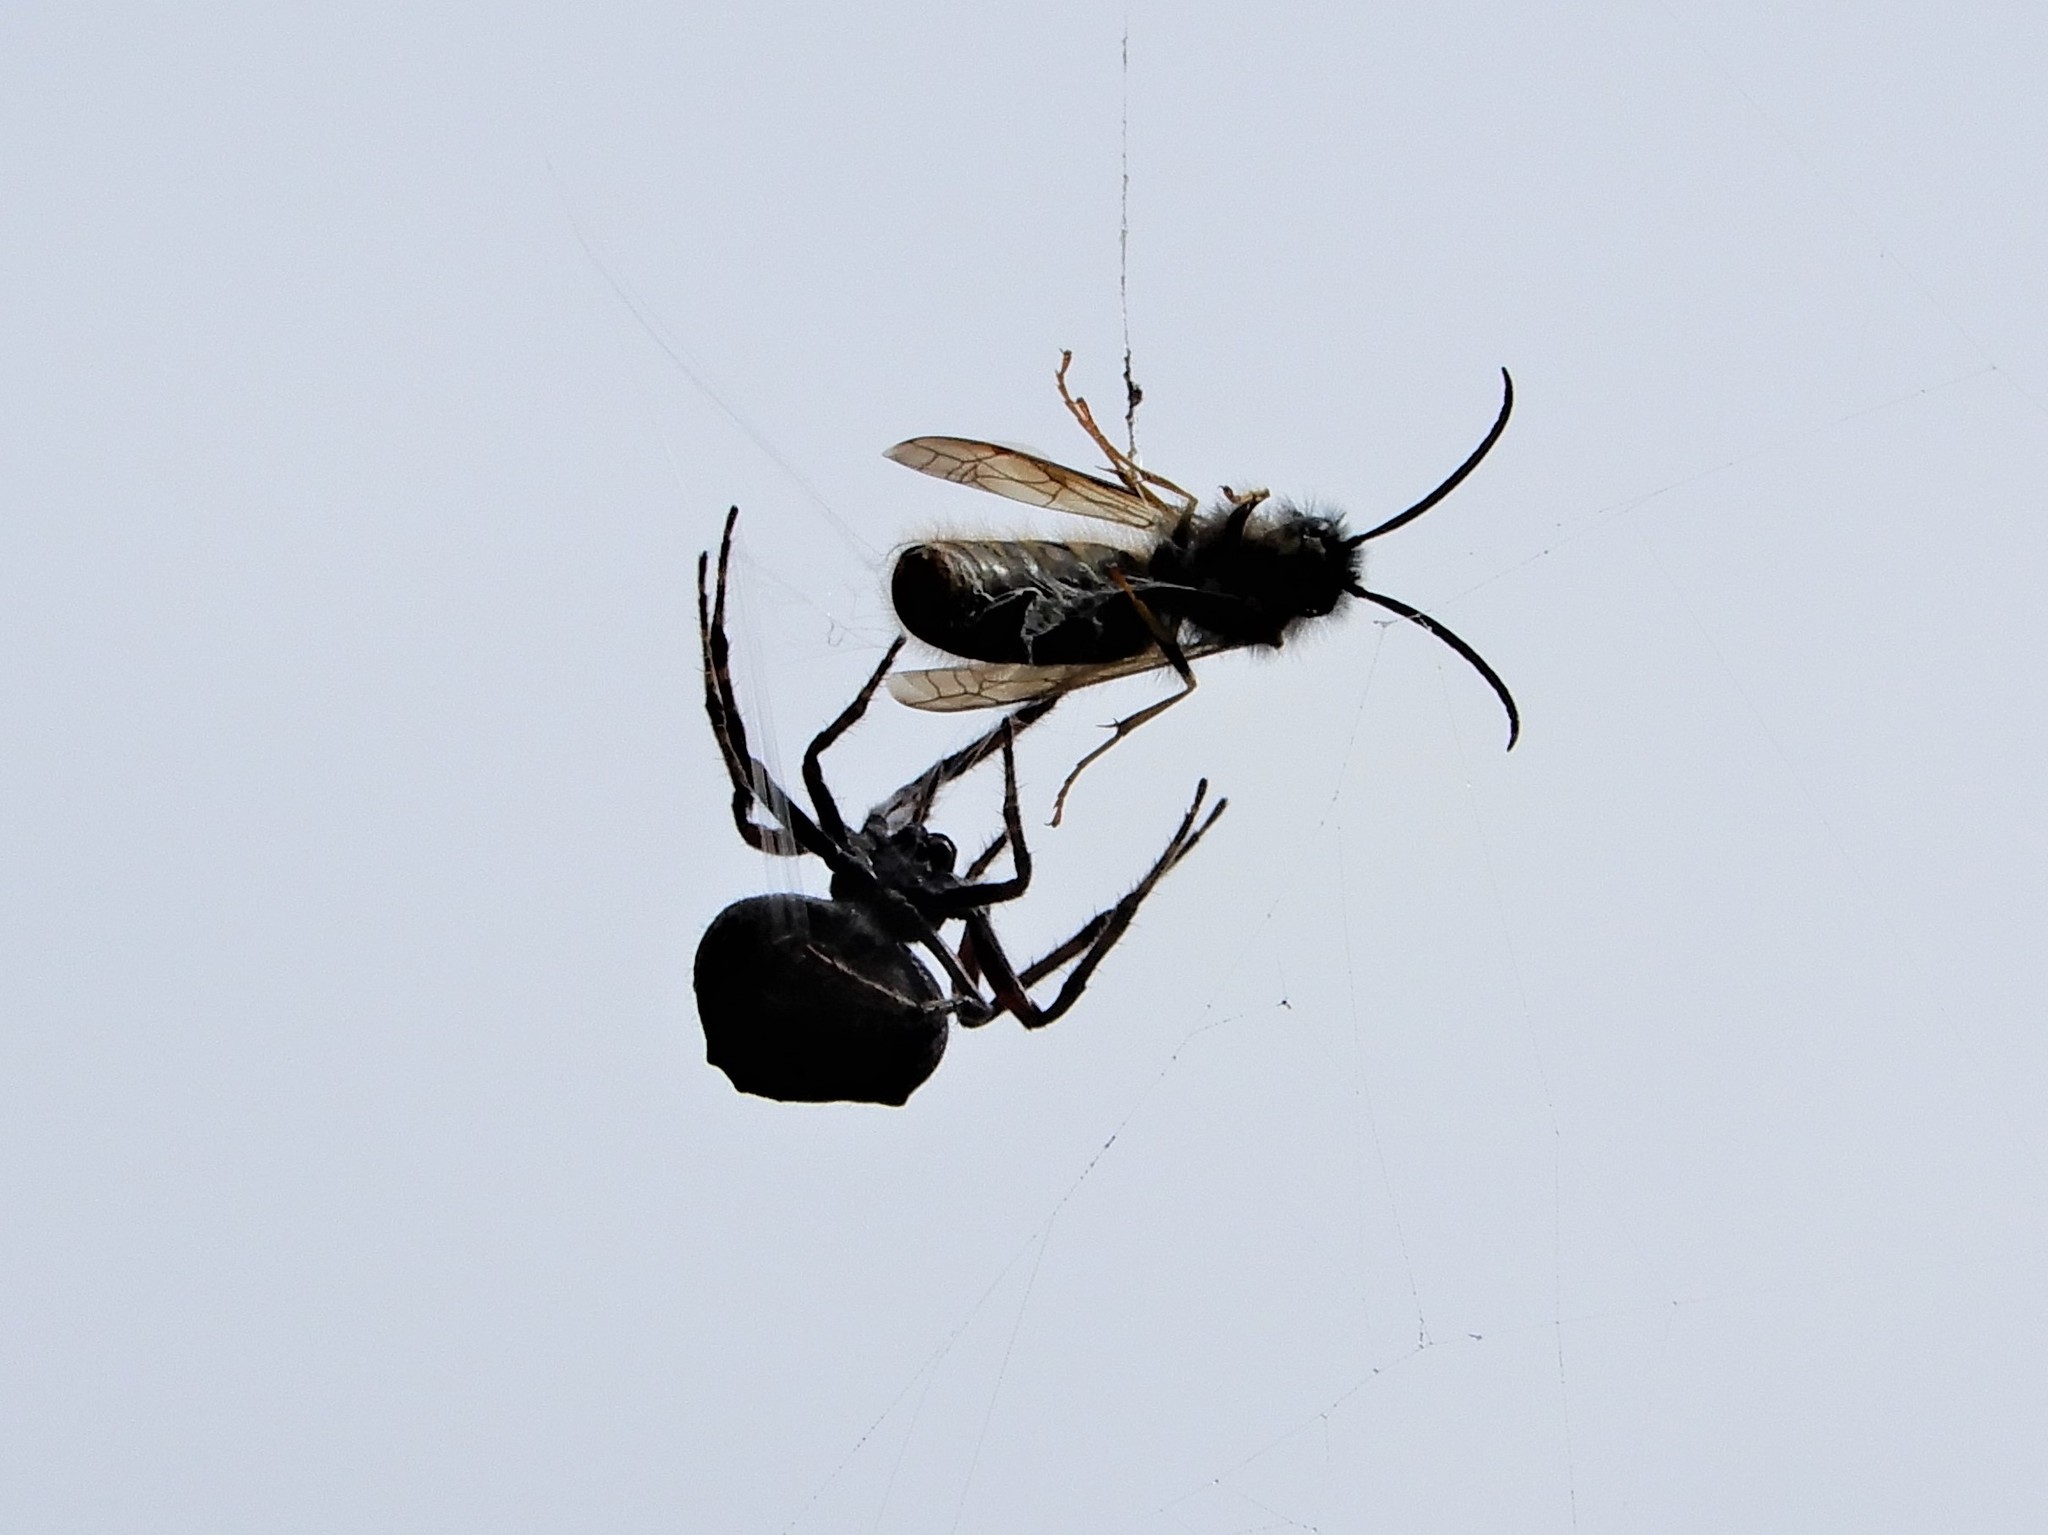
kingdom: Animalia
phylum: Arthropoda
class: Arachnida
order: Araneae
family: Araneidae
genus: Eriophora
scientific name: Eriophora pustulosa
